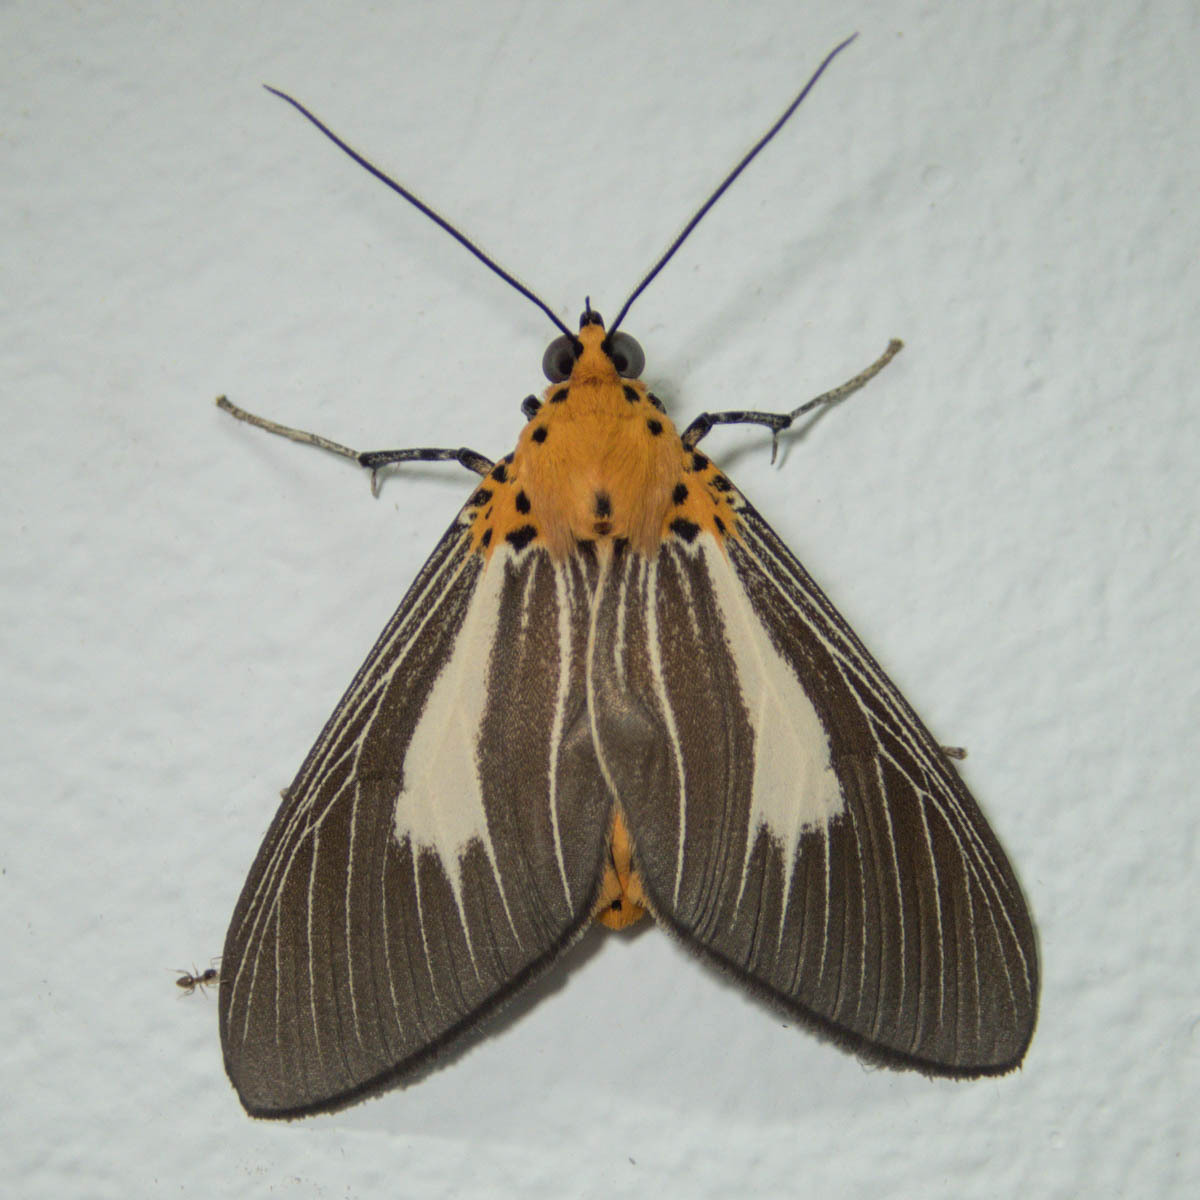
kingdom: Animalia
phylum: Arthropoda
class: Insecta
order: Lepidoptera
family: Erebidae
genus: Asota
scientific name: Asota subsimilis
